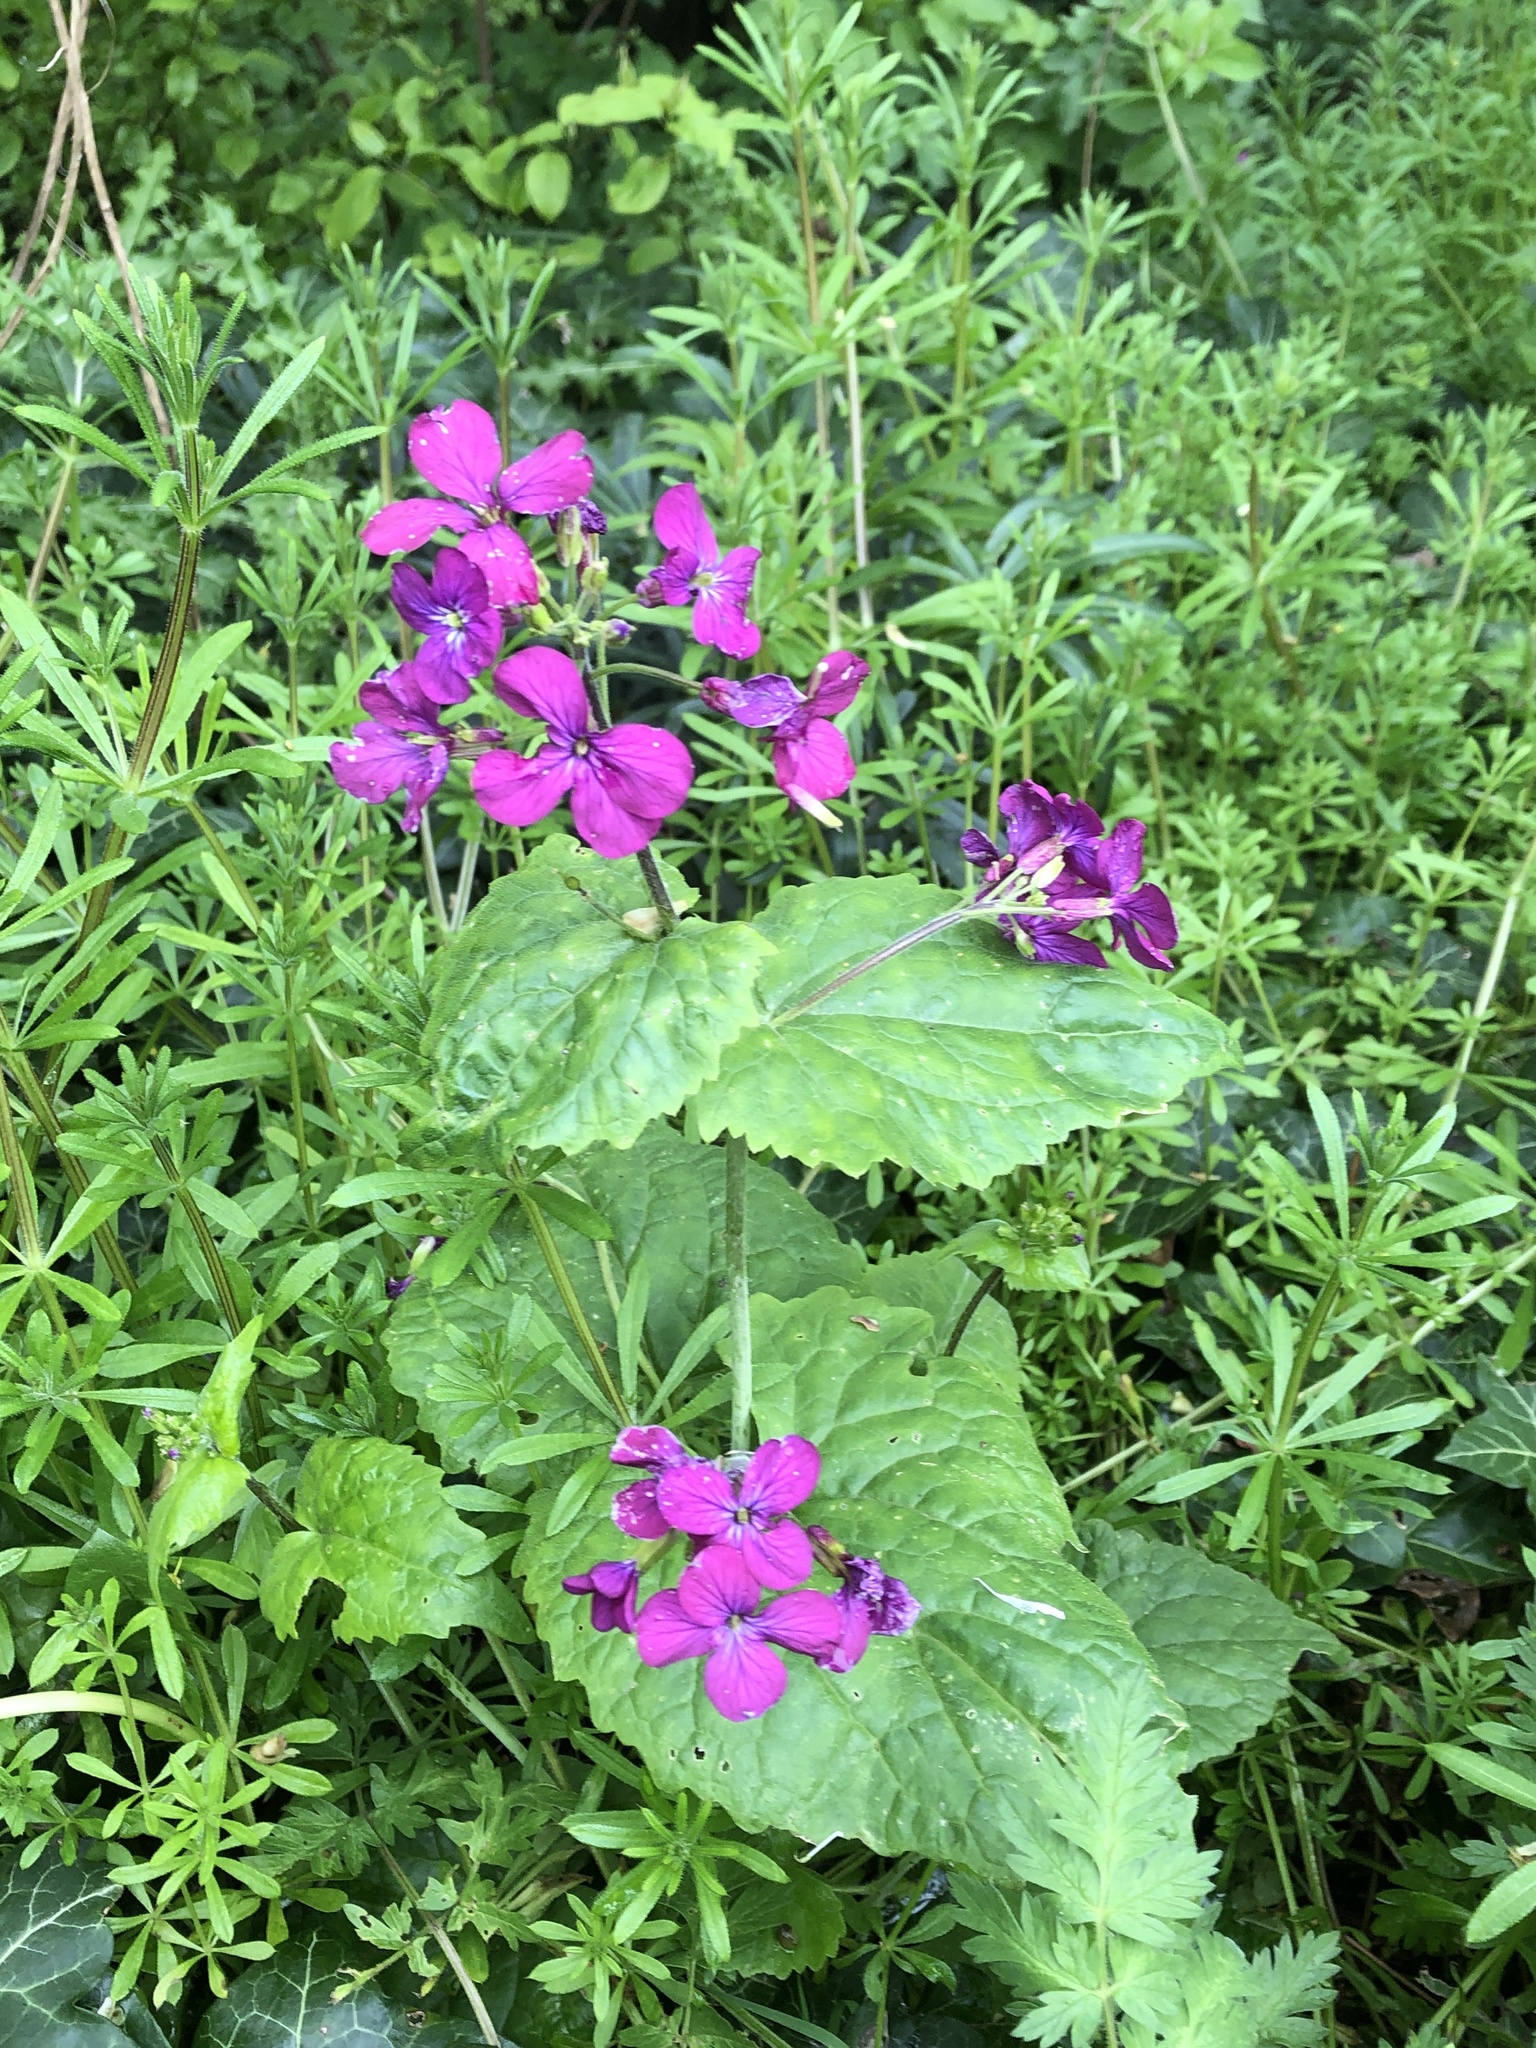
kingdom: Plantae
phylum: Tracheophyta
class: Magnoliopsida
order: Brassicales
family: Brassicaceae
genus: Lunaria
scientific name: Lunaria annua
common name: Honesty
